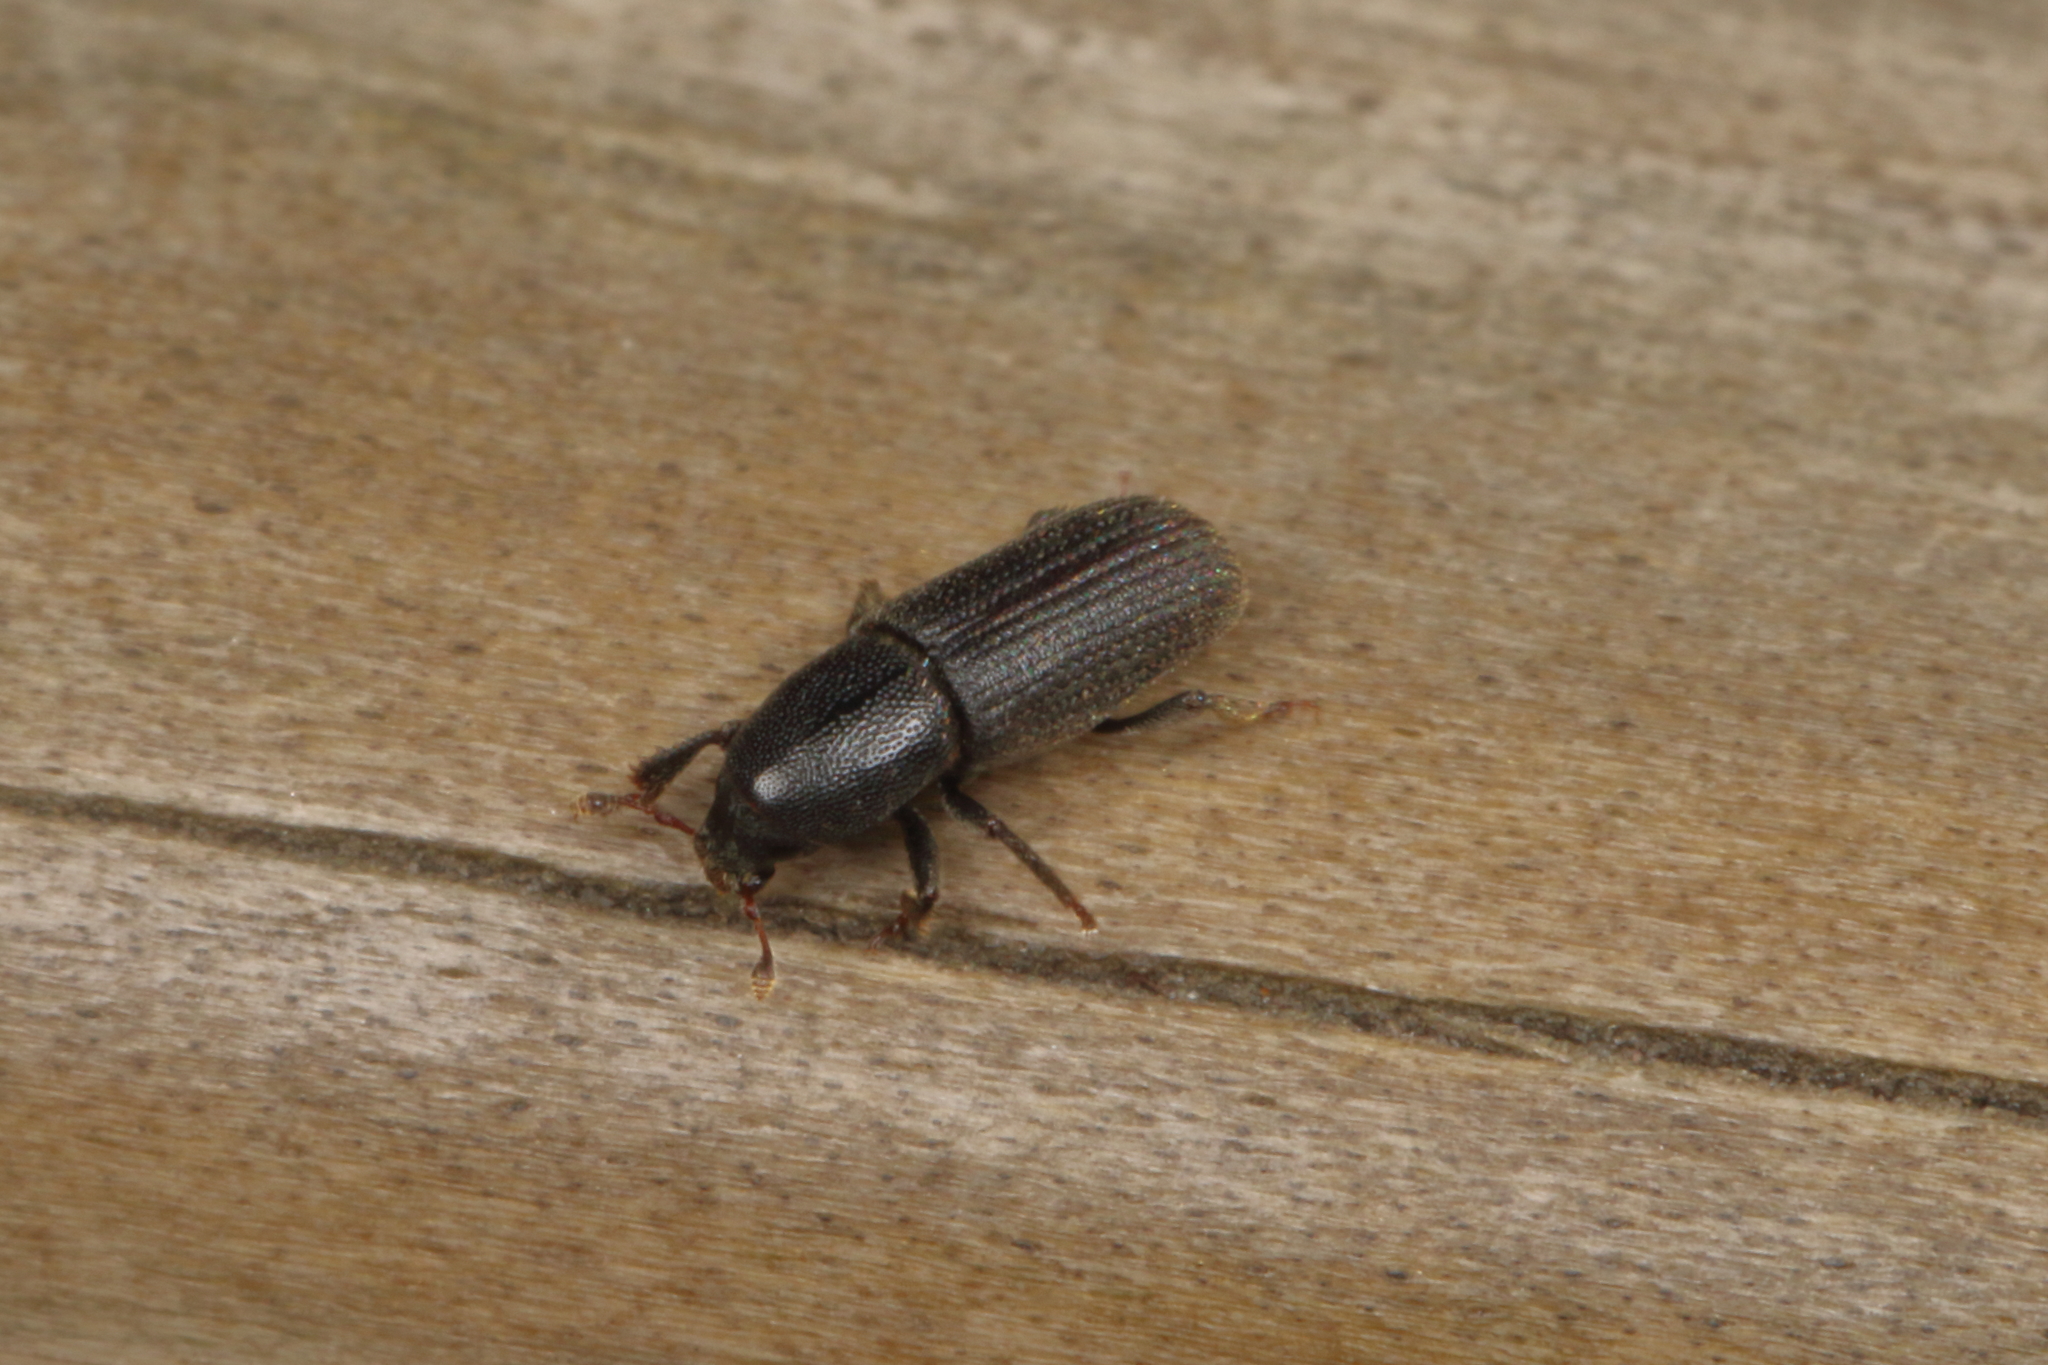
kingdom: Animalia
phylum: Arthropoda
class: Insecta
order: Coleoptera
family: Curculionidae
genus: Hylastes
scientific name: Hylastes ater
